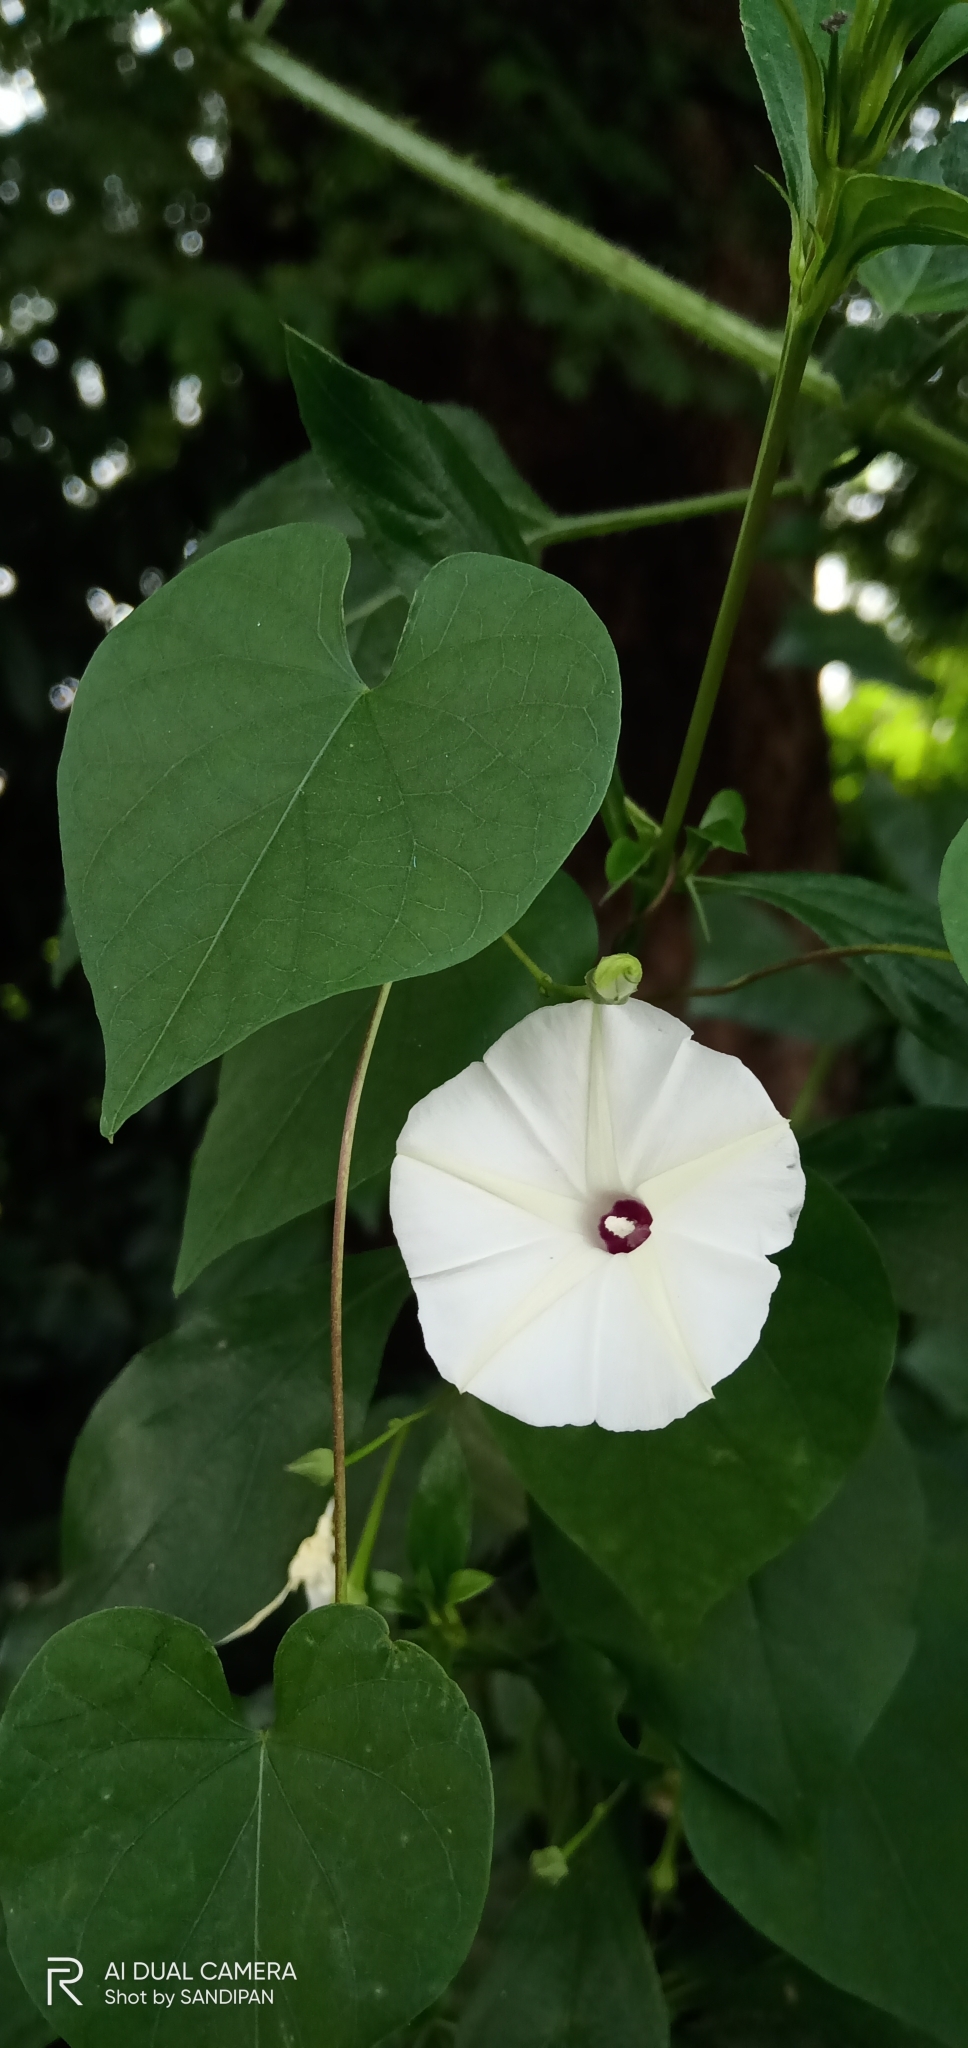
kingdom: Plantae
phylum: Tracheophyta
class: Magnoliopsida
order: Solanales
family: Convolvulaceae
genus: Ipomoea
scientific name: Ipomoea obscura
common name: Obscure morning-glory
